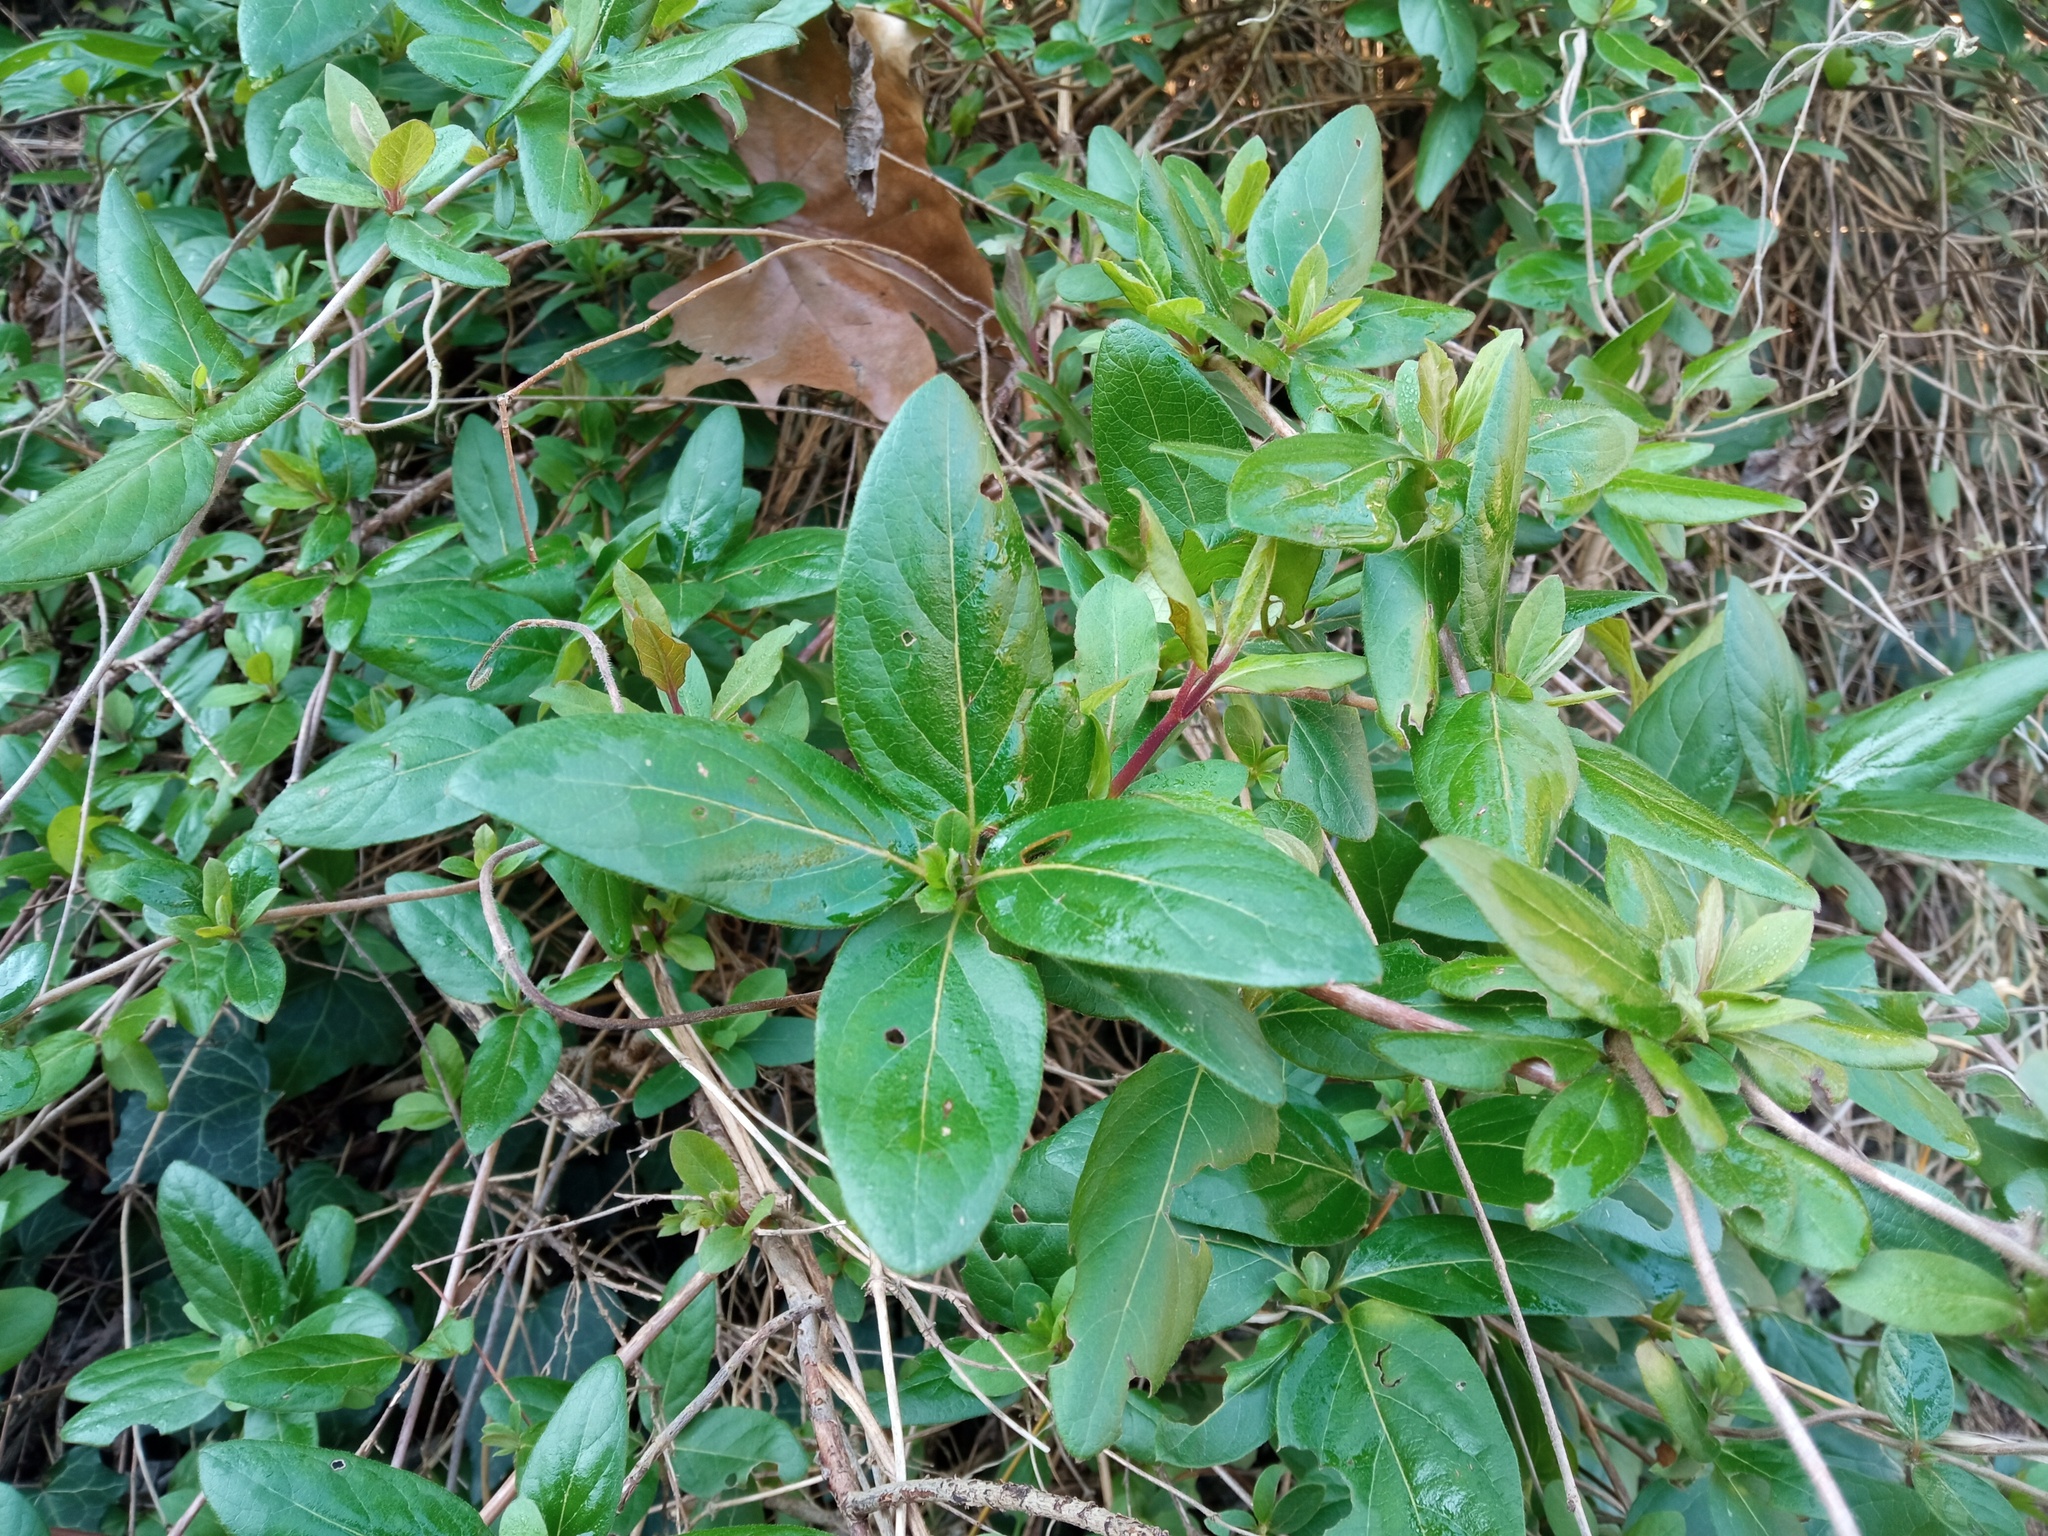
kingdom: Plantae
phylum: Tracheophyta
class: Magnoliopsida
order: Dipsacales
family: Viburnaceae
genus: Viburnum
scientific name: Viburnum tinus
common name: Laurustinus
